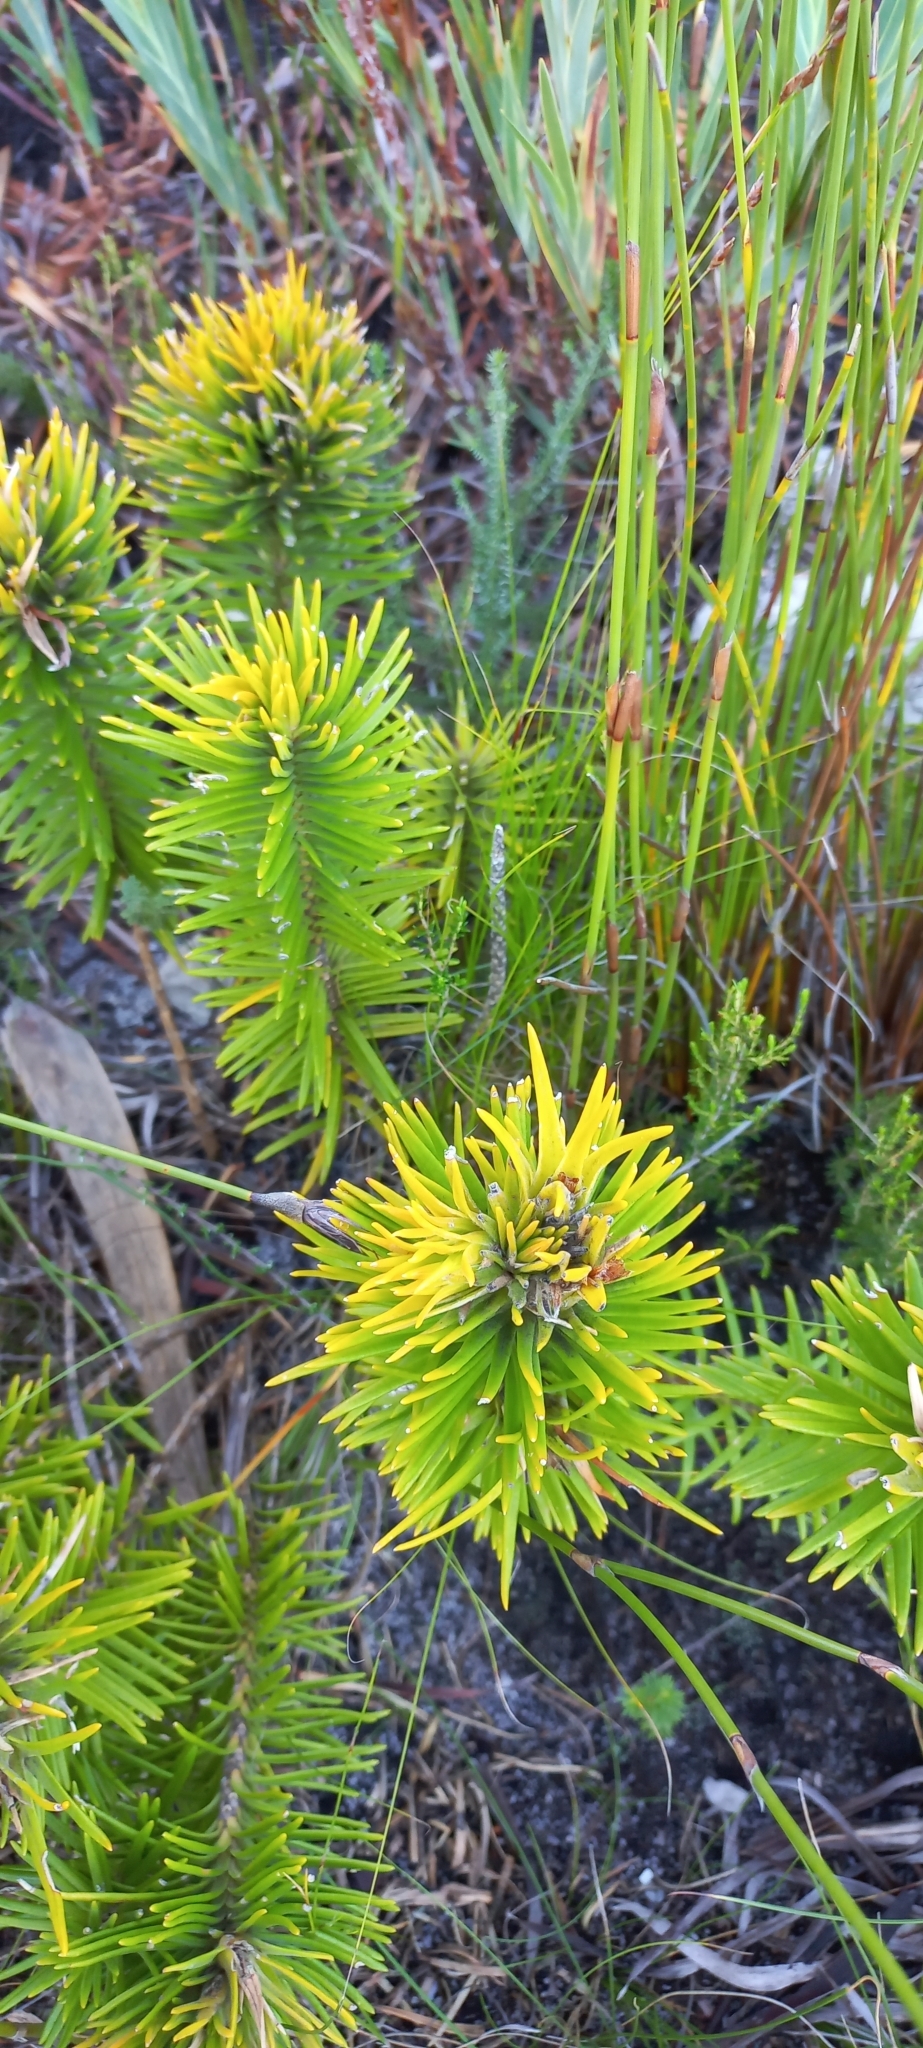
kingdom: Plantae
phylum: Tracheophyta
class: Magnoliopsida
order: Lamiales
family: Stilbaceae
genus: Retzia
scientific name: Retzia capensis
